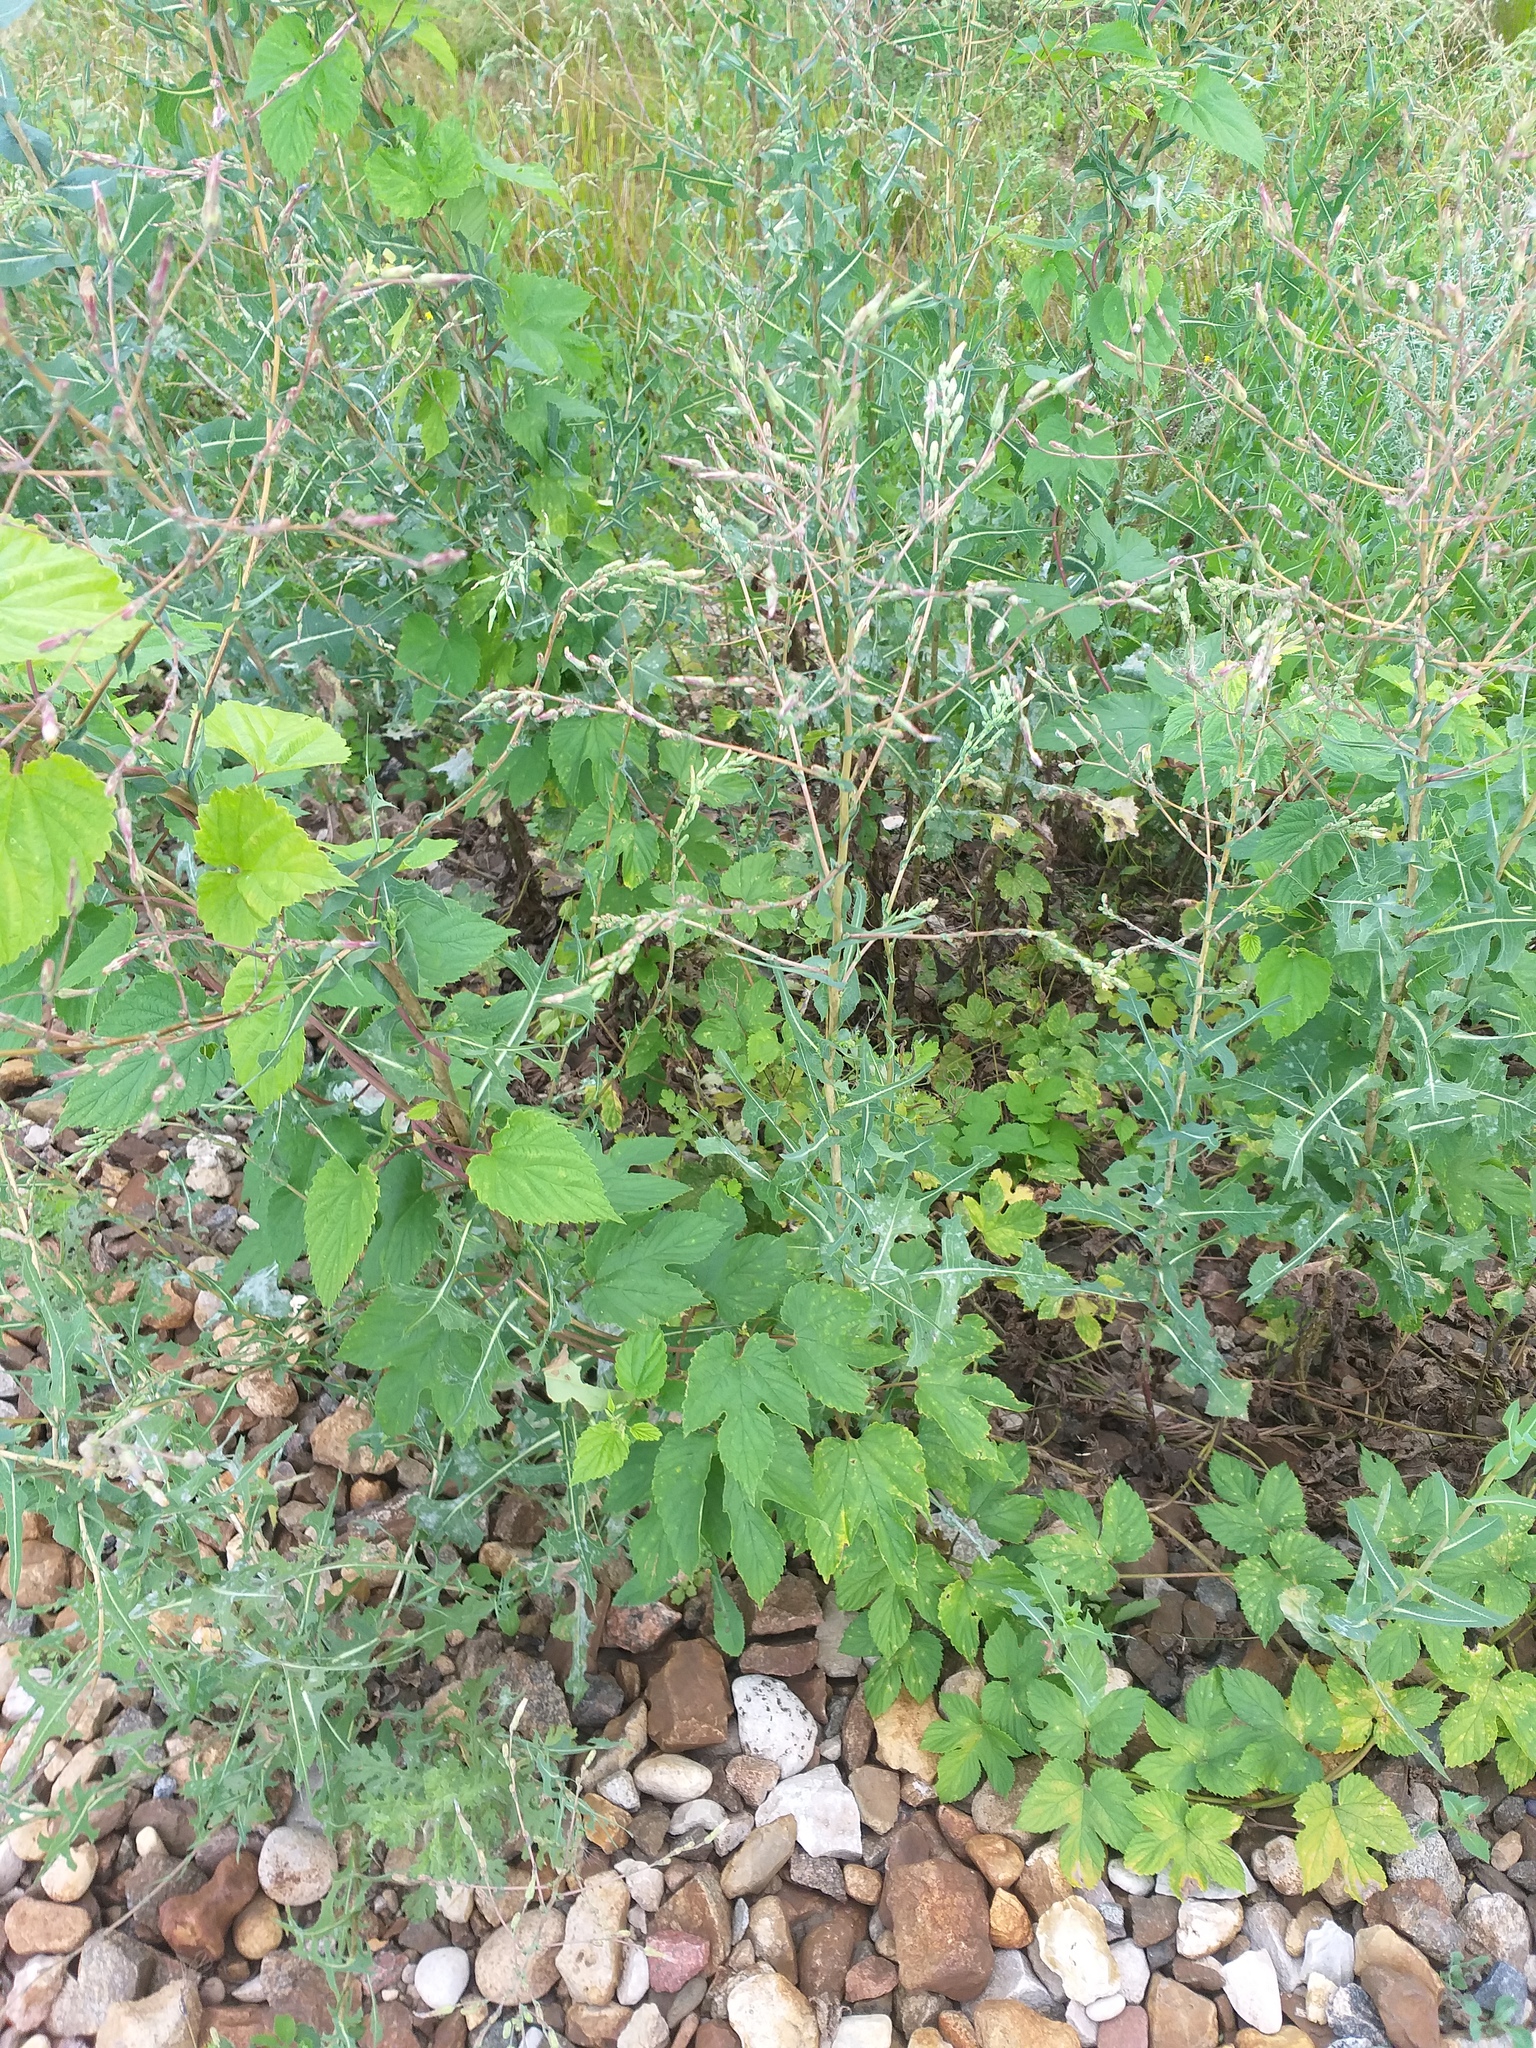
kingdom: Plantae
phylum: Tracheophyta
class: Magnoliopsida
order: Rosales
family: Cannabaceae
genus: Humulus
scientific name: Humulus lupulus
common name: Hop
